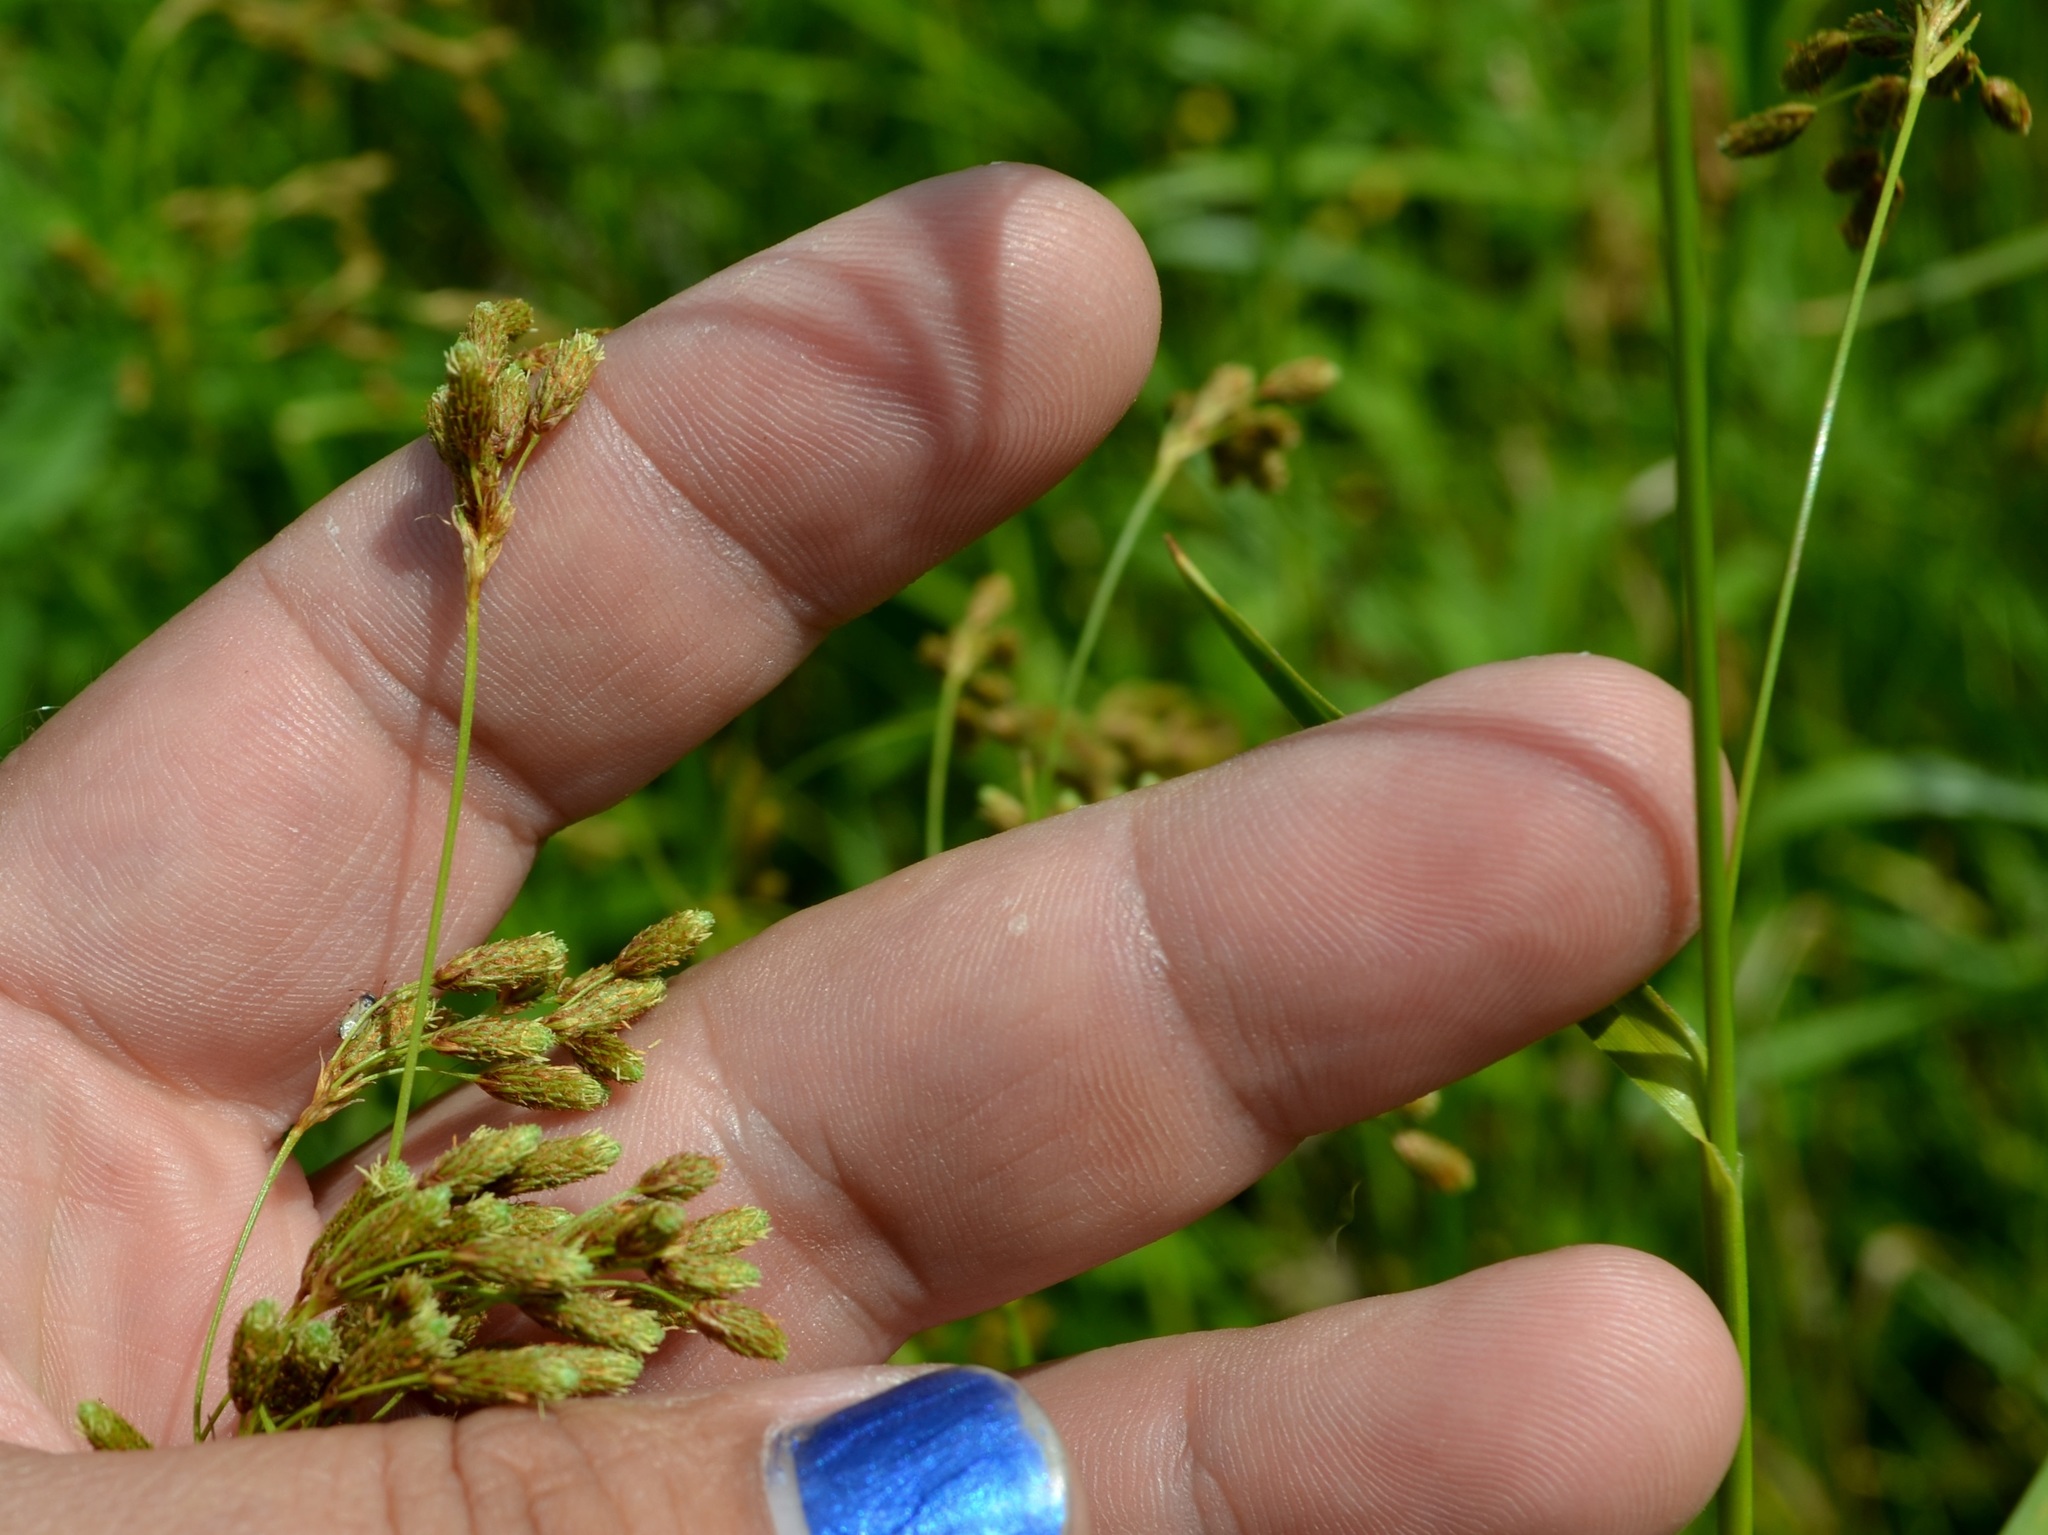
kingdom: Plantae
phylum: Tracheophyta
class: Liliopsida
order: Poales
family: Cyperaceae
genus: Scirpus
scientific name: Scirpus cyperinus
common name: Black-sheathed bulrush
